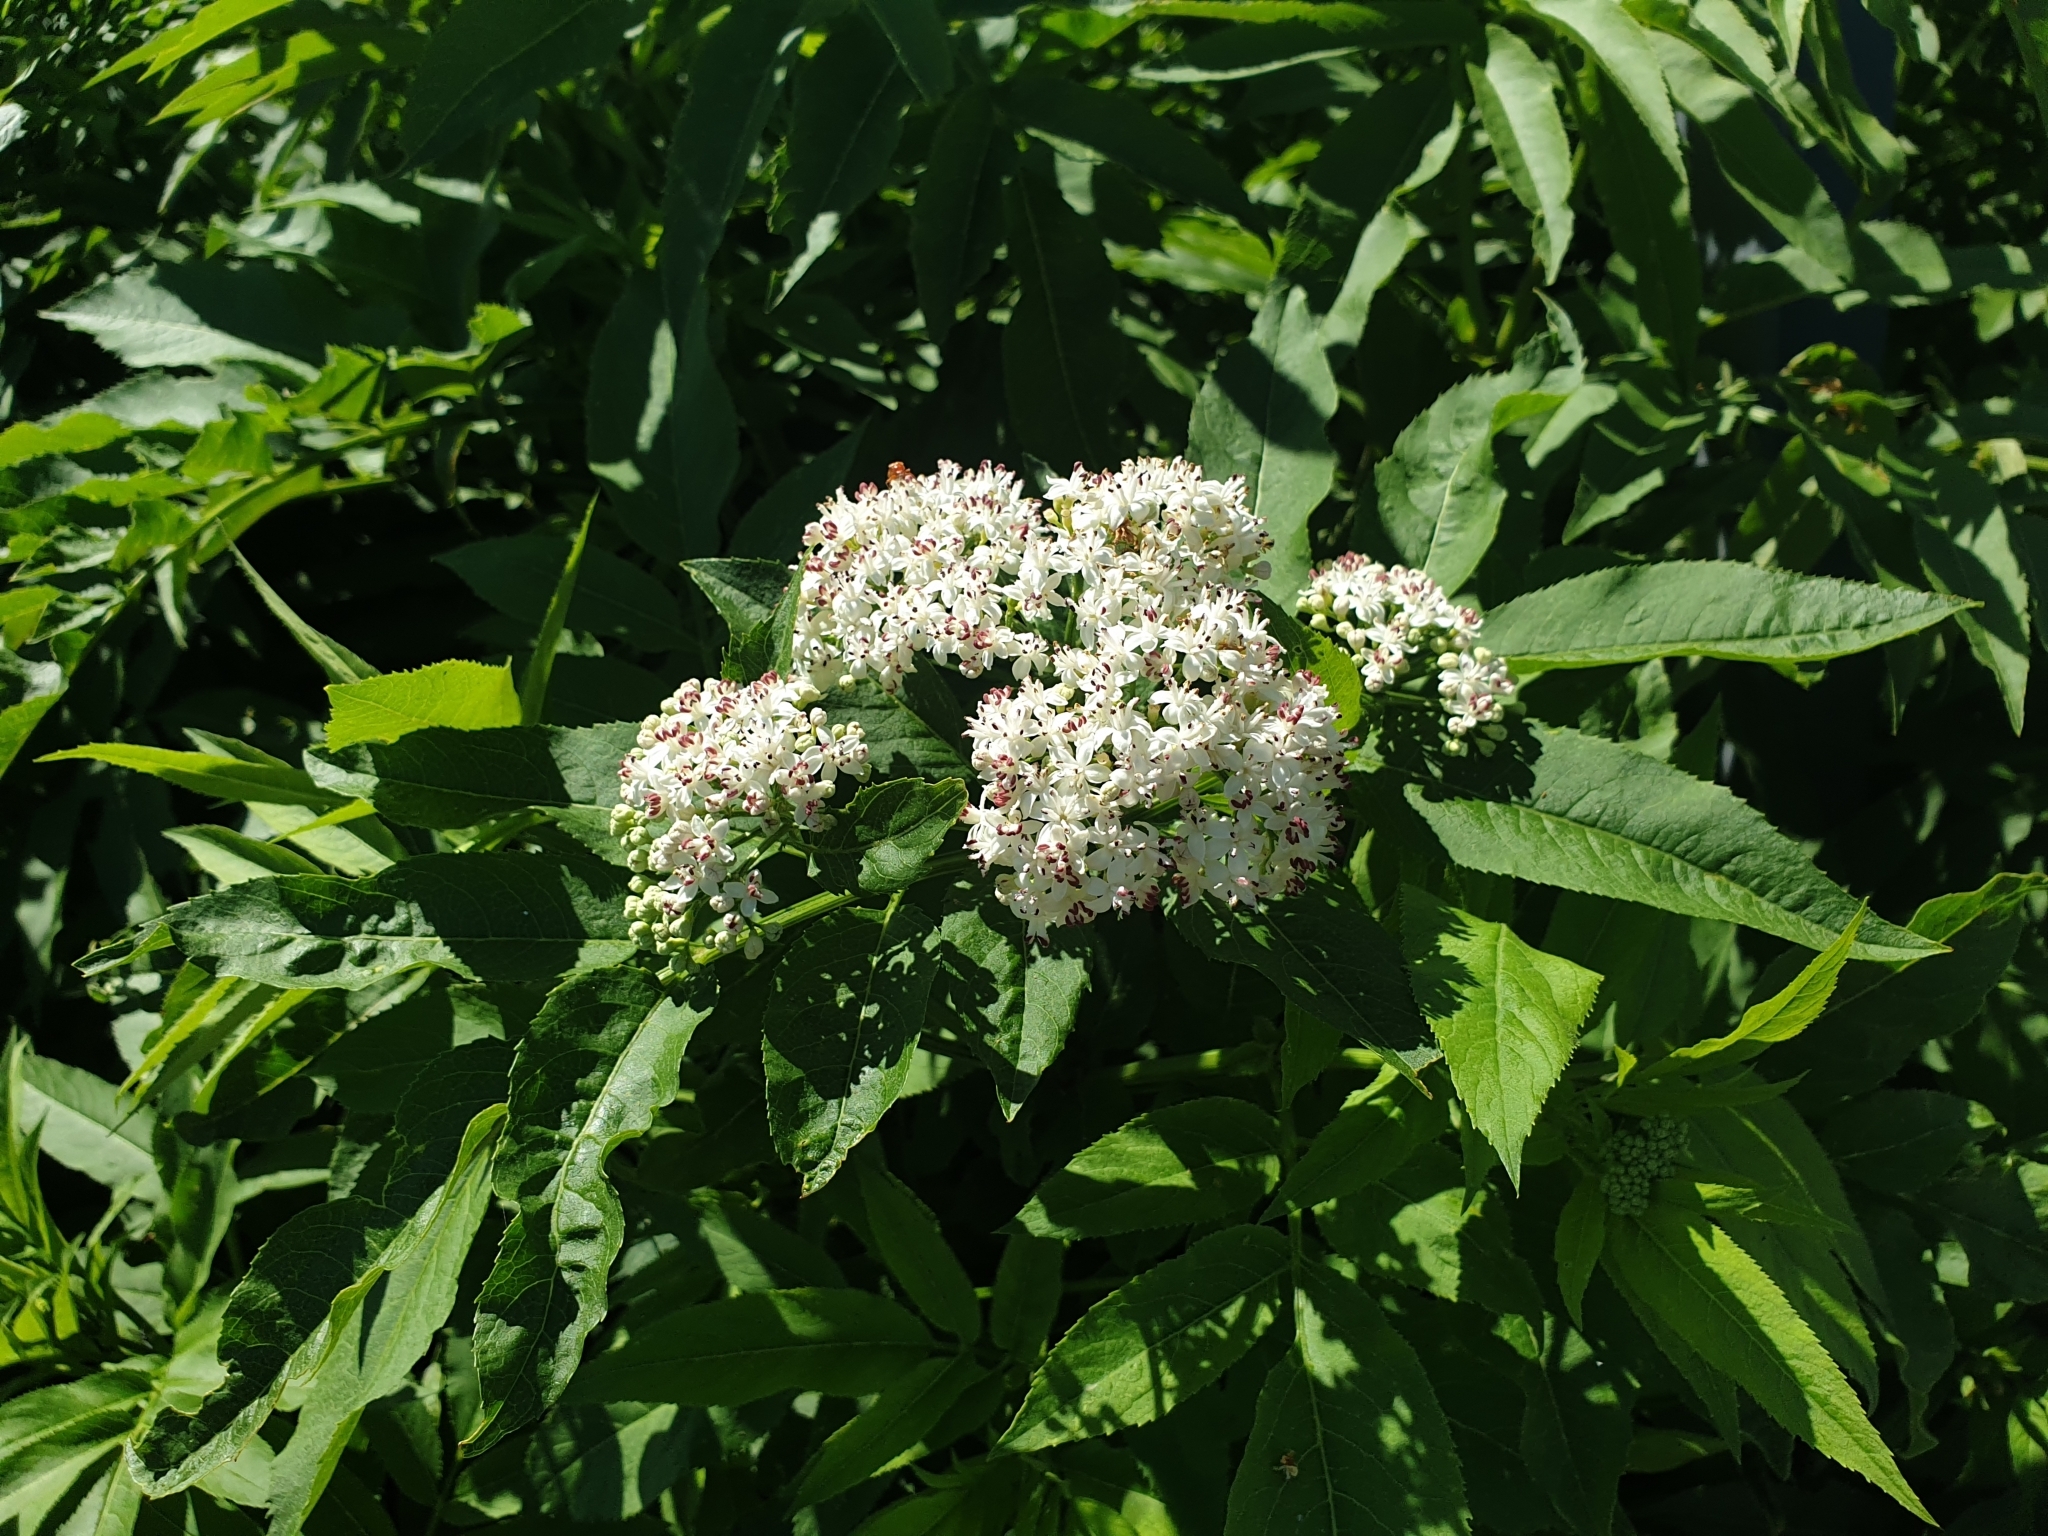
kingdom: Plantae
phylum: Tracheophyta
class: Magnoliopsida
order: Dipsacales
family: Viburnaceae
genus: Sambucus
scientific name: Sambucus ebulus
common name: Dwarf elder
